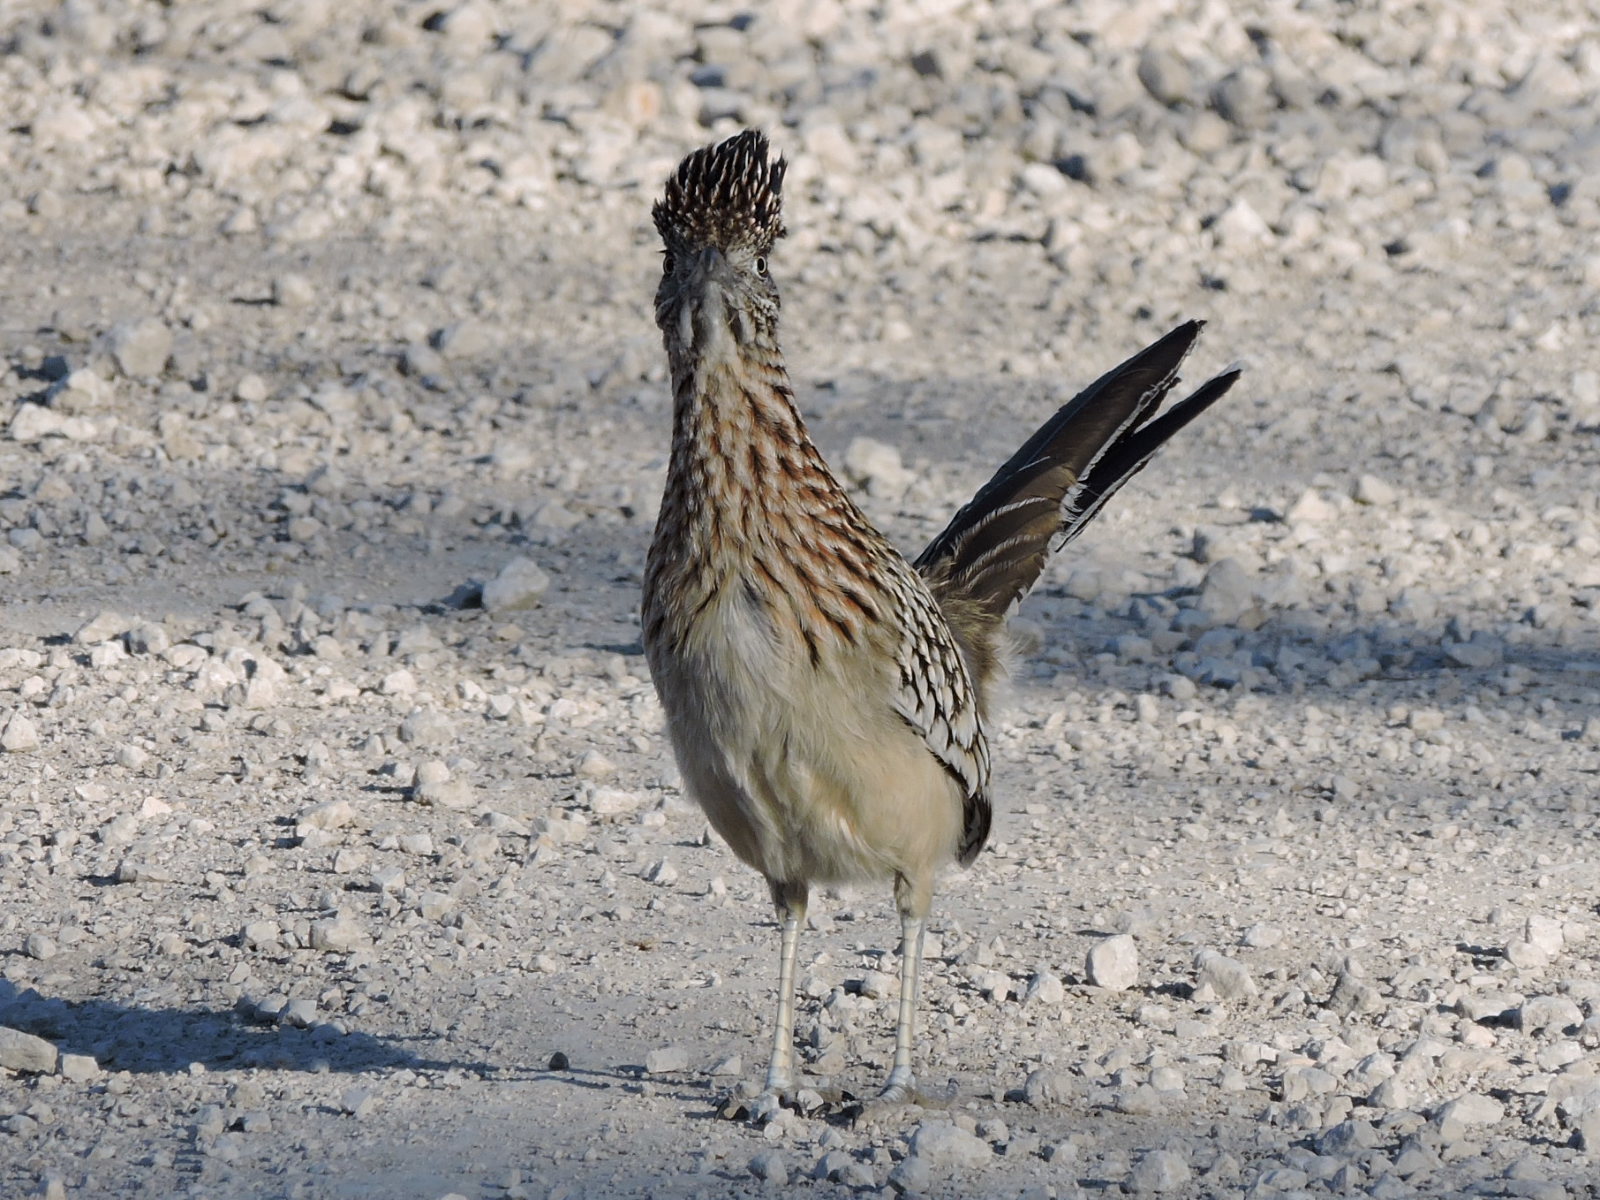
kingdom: Animalia
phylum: Chordata
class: Aves
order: Cuculiformes
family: Cuculidae
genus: Geococcyx
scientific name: Geococcyx californianus
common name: Greater roadrunner
